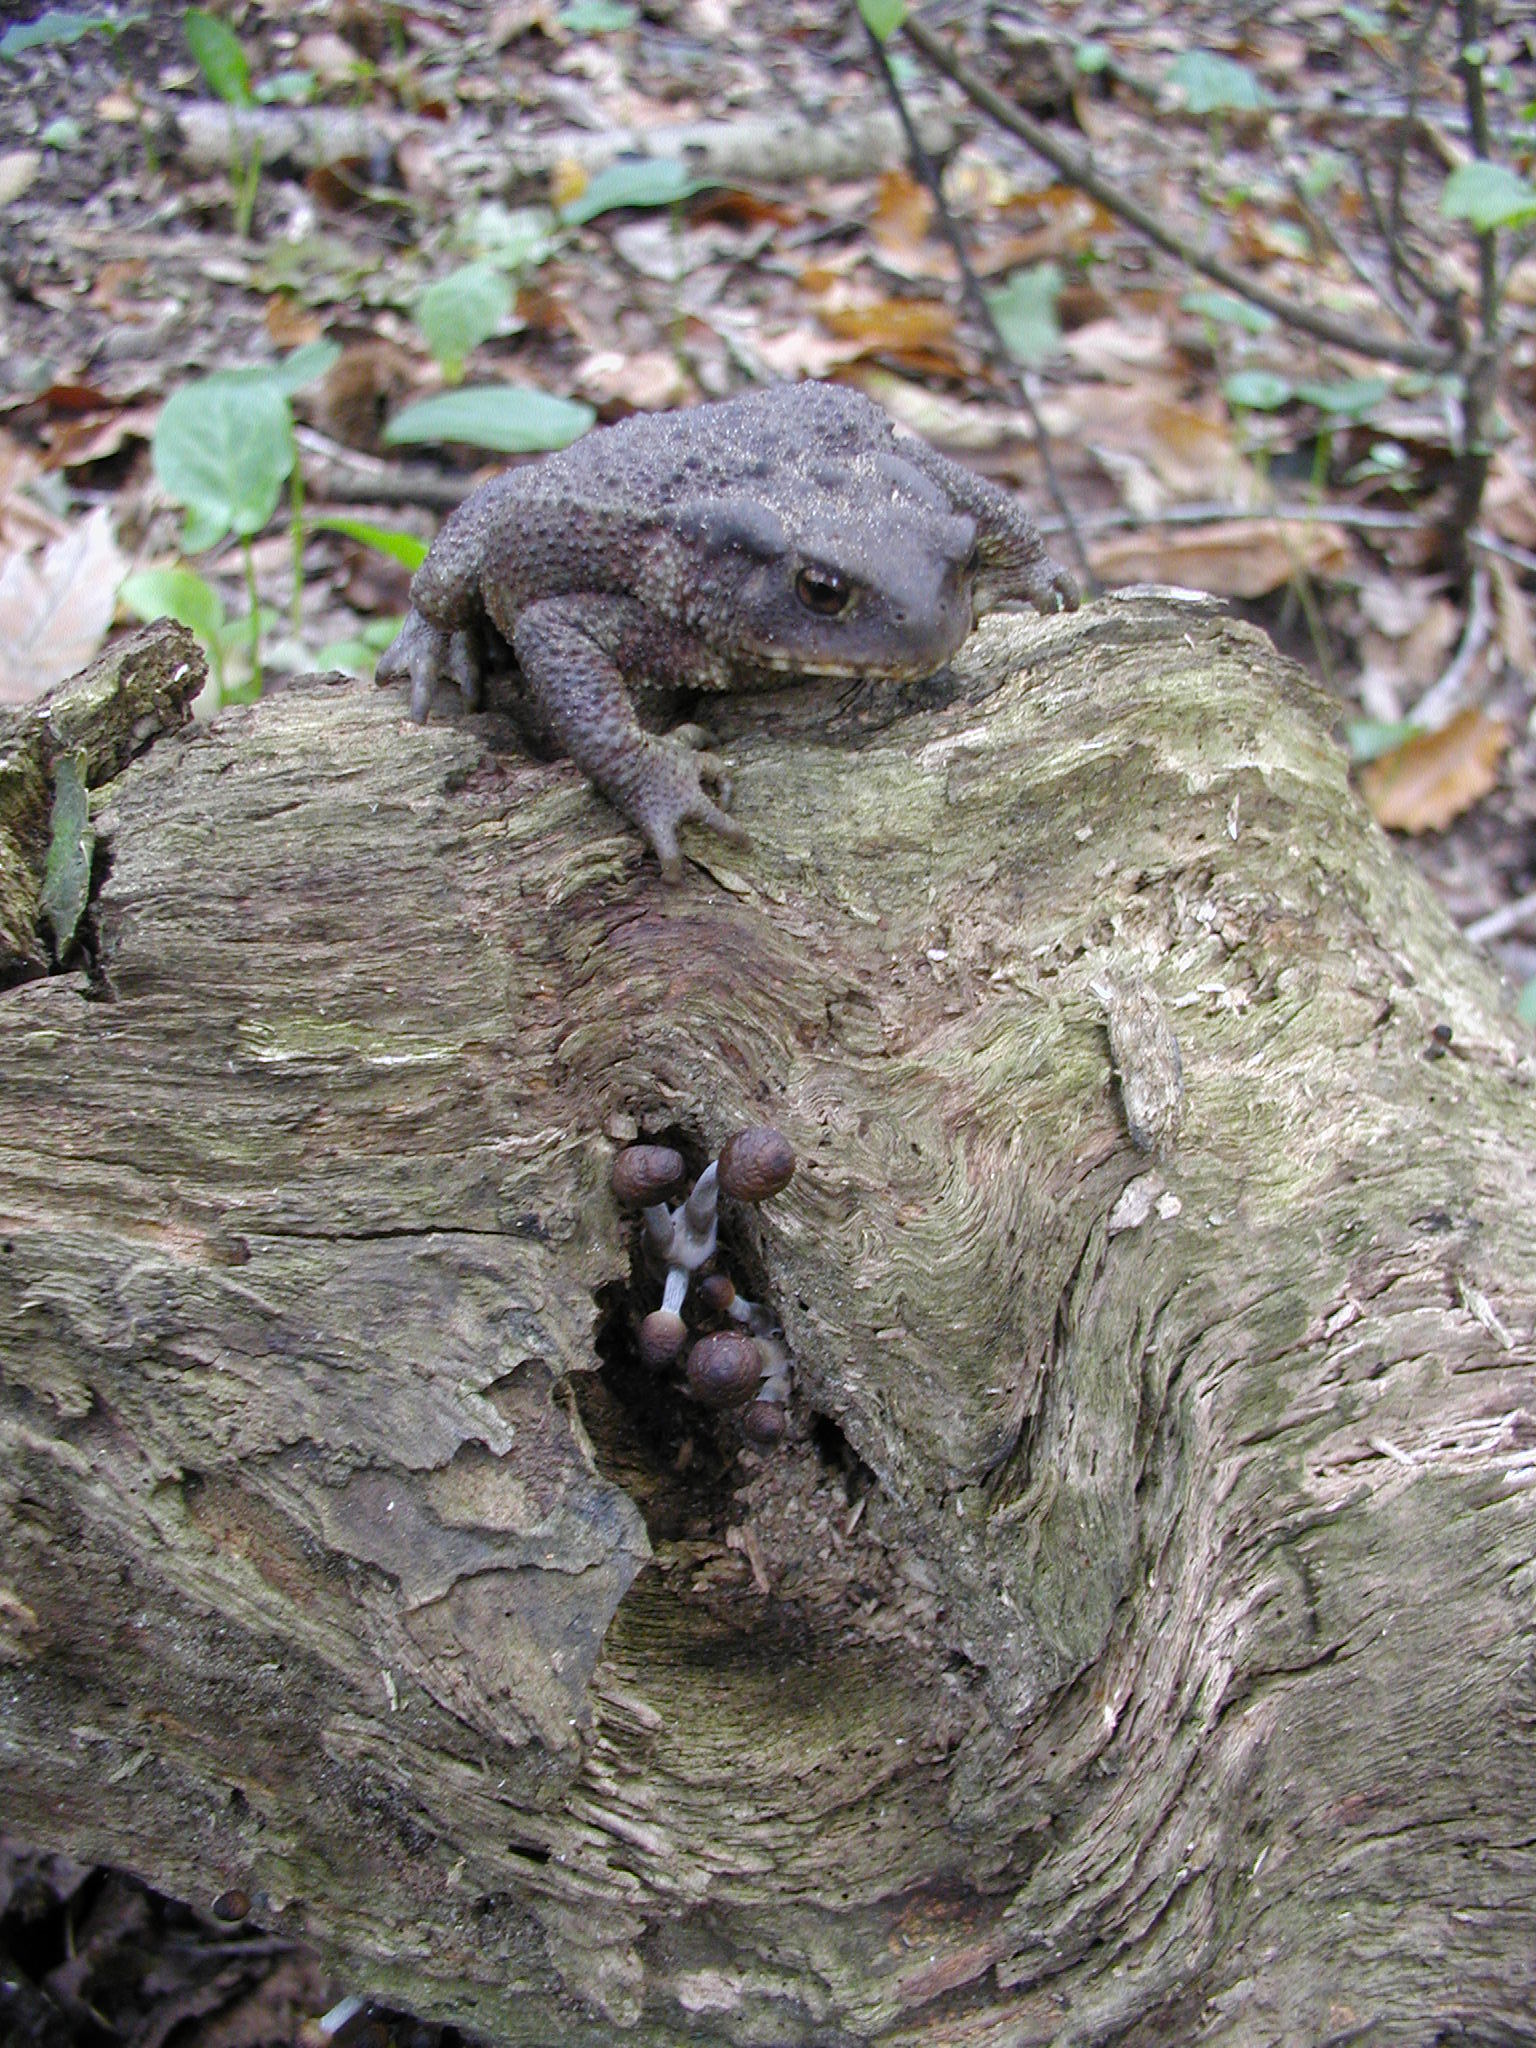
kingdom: Animalia
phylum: Chordata
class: Amphibia
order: Anura
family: Bufonidae
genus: Bufo
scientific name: Bufo bufo
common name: Common toad
